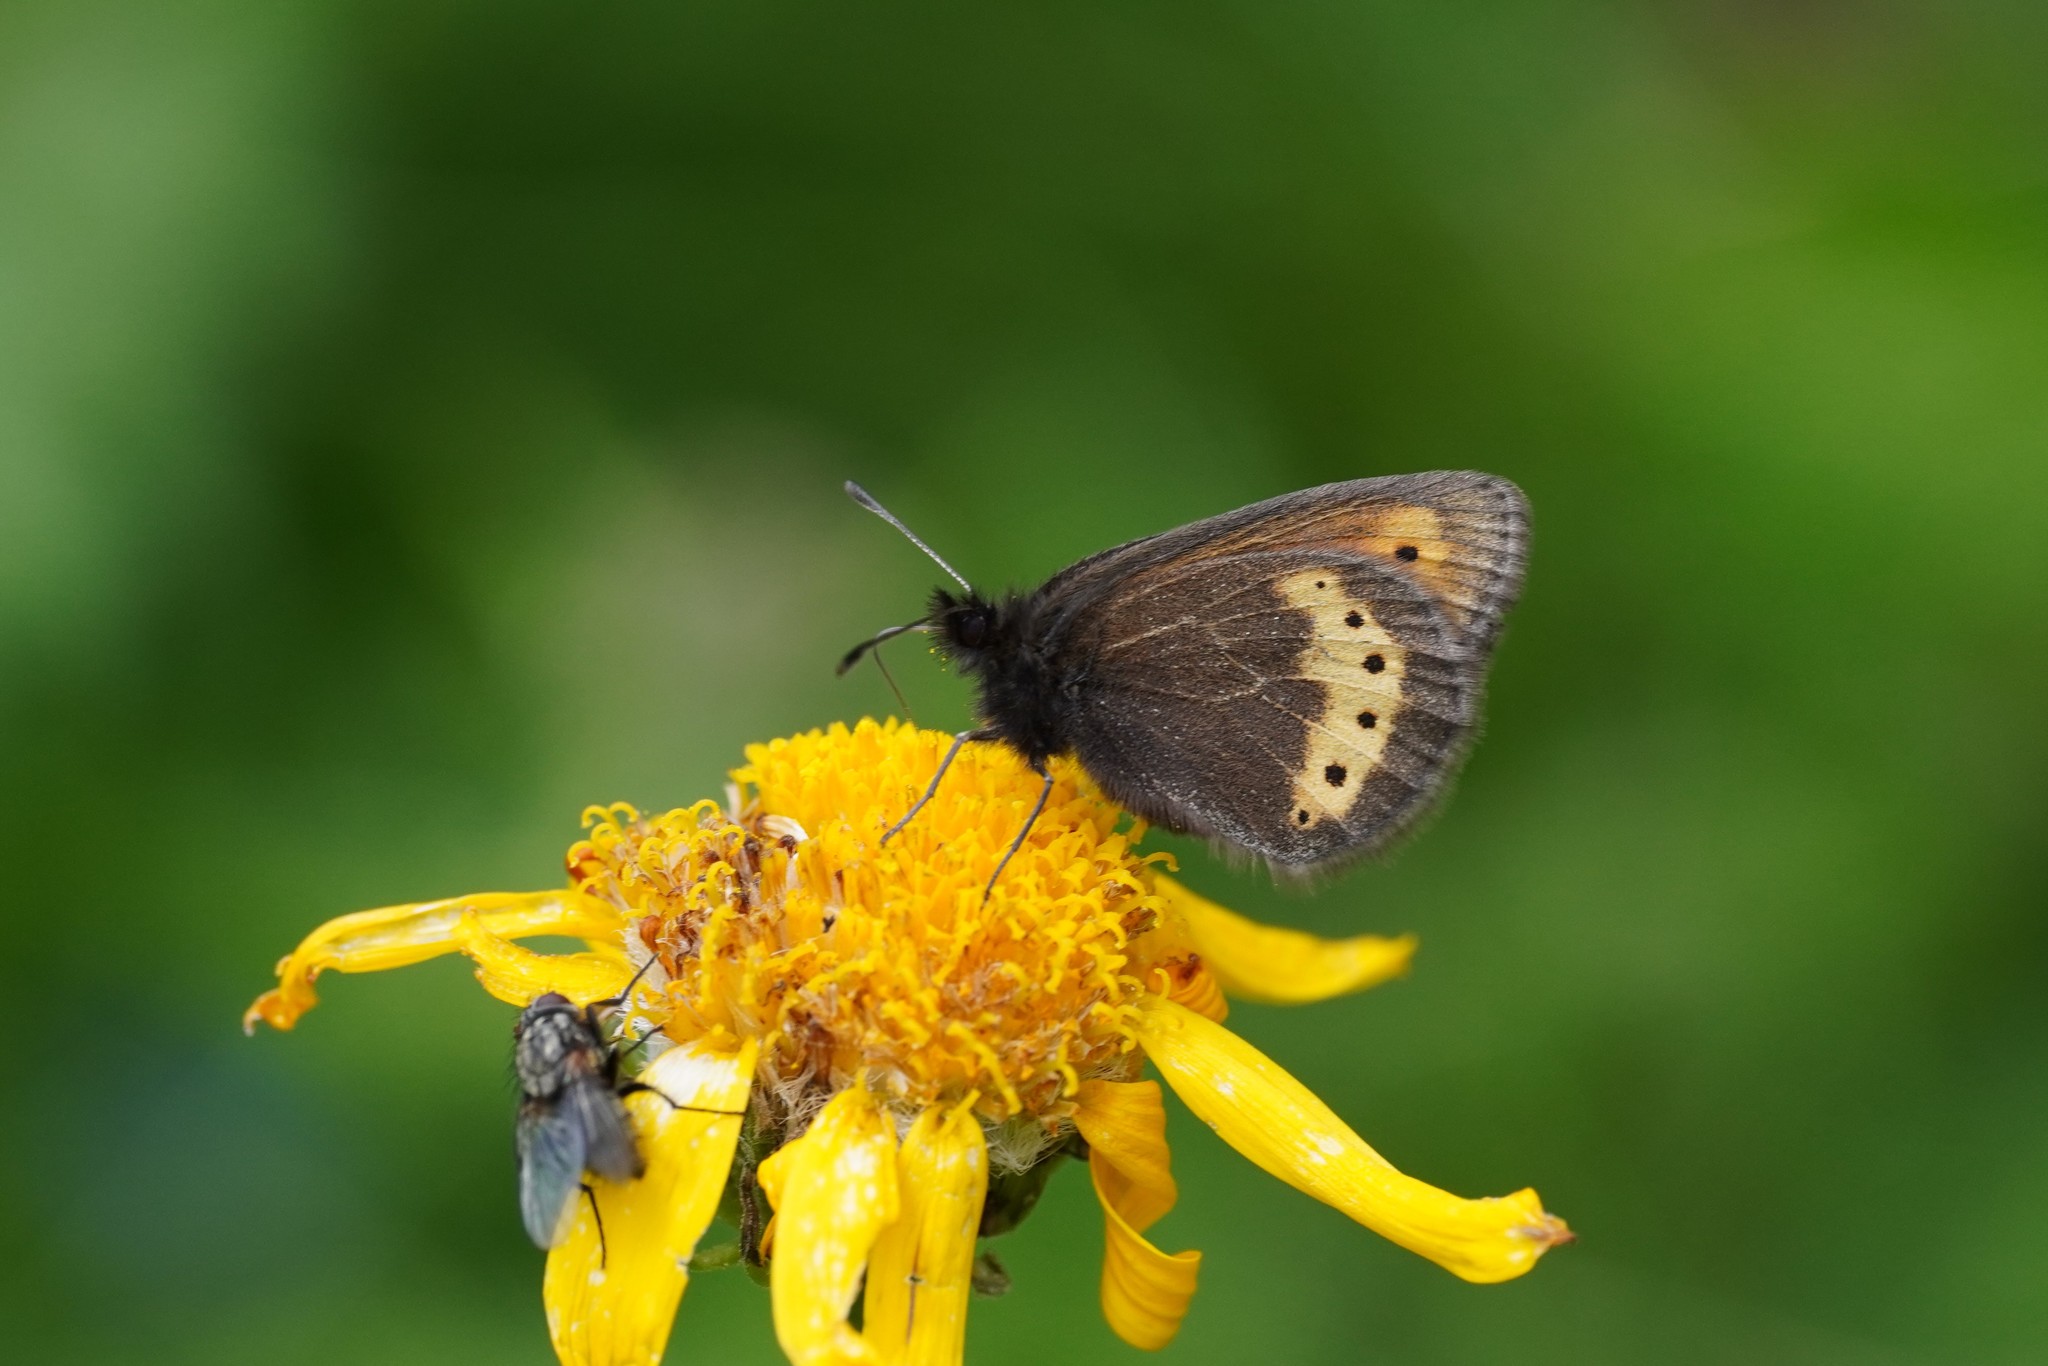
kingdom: Animalia
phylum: Arthropoda
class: Insecta
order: Lepidoptera
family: Nymphalidae
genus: Erebia
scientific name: Erebia flavofasciata
